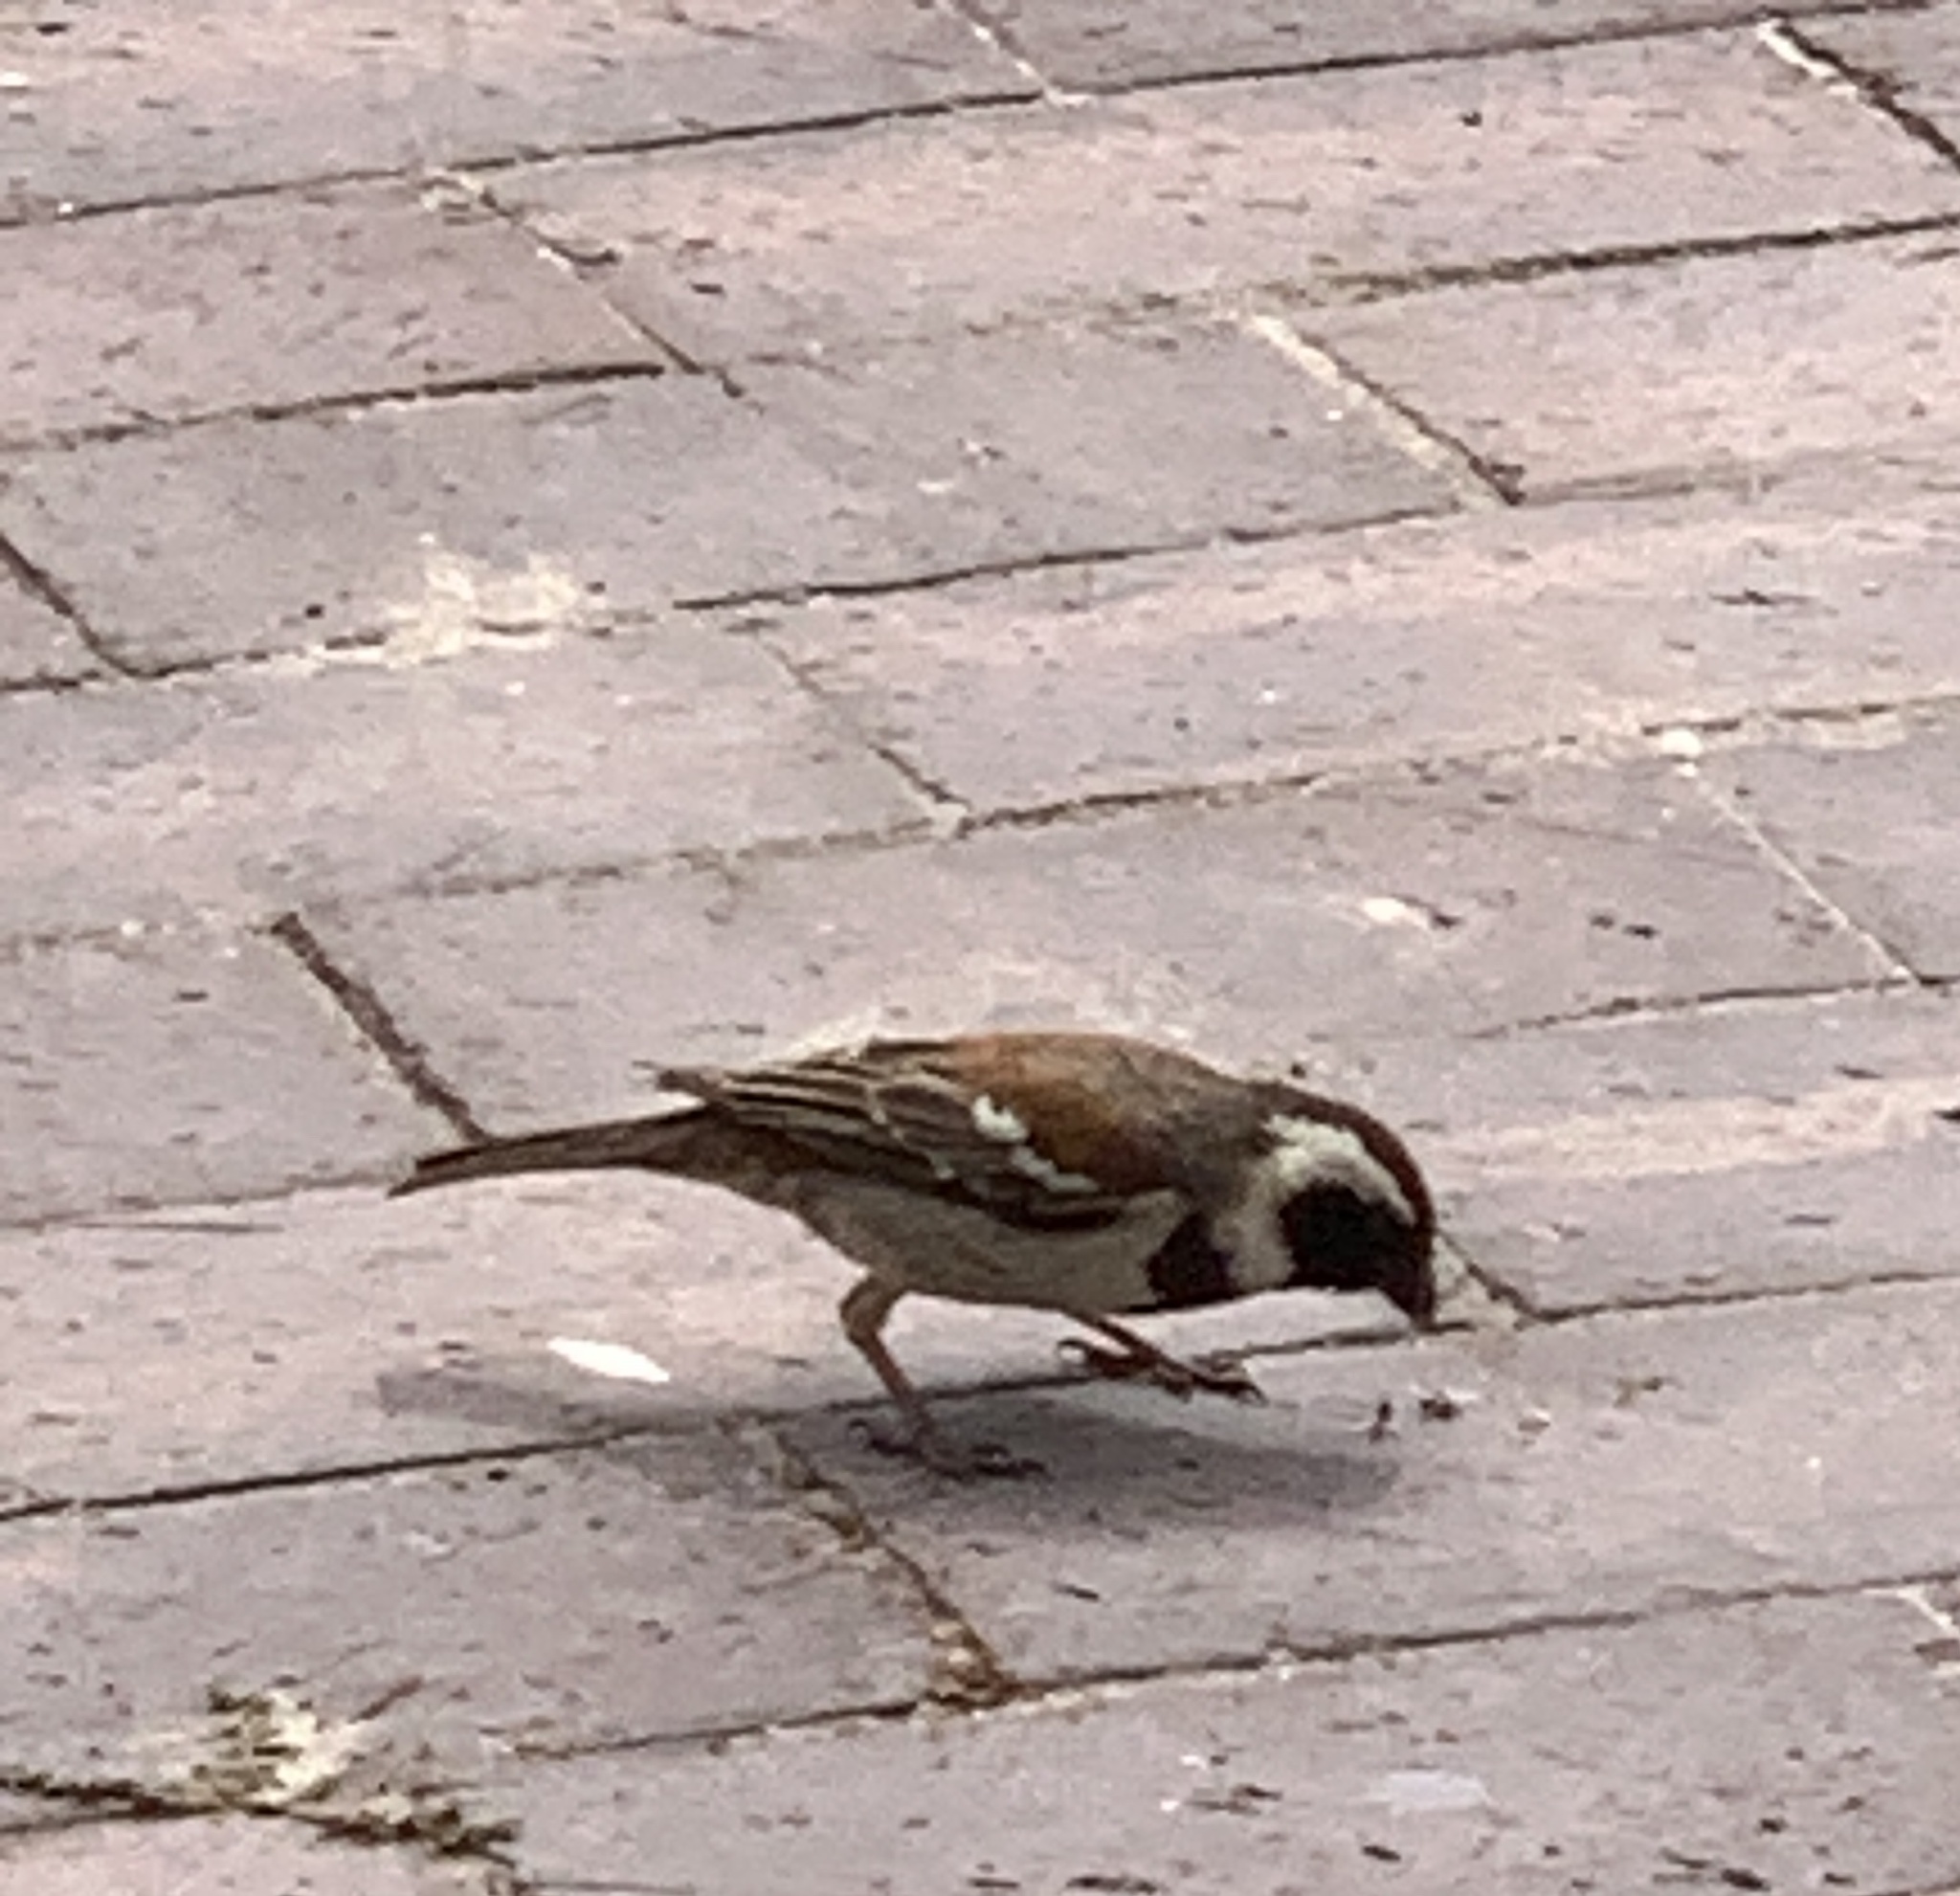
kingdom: Animalia
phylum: Chordata
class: Aves
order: Passeriformes
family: Passeridae
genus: Passer
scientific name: Passer melanurus
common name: Cape sparrow
